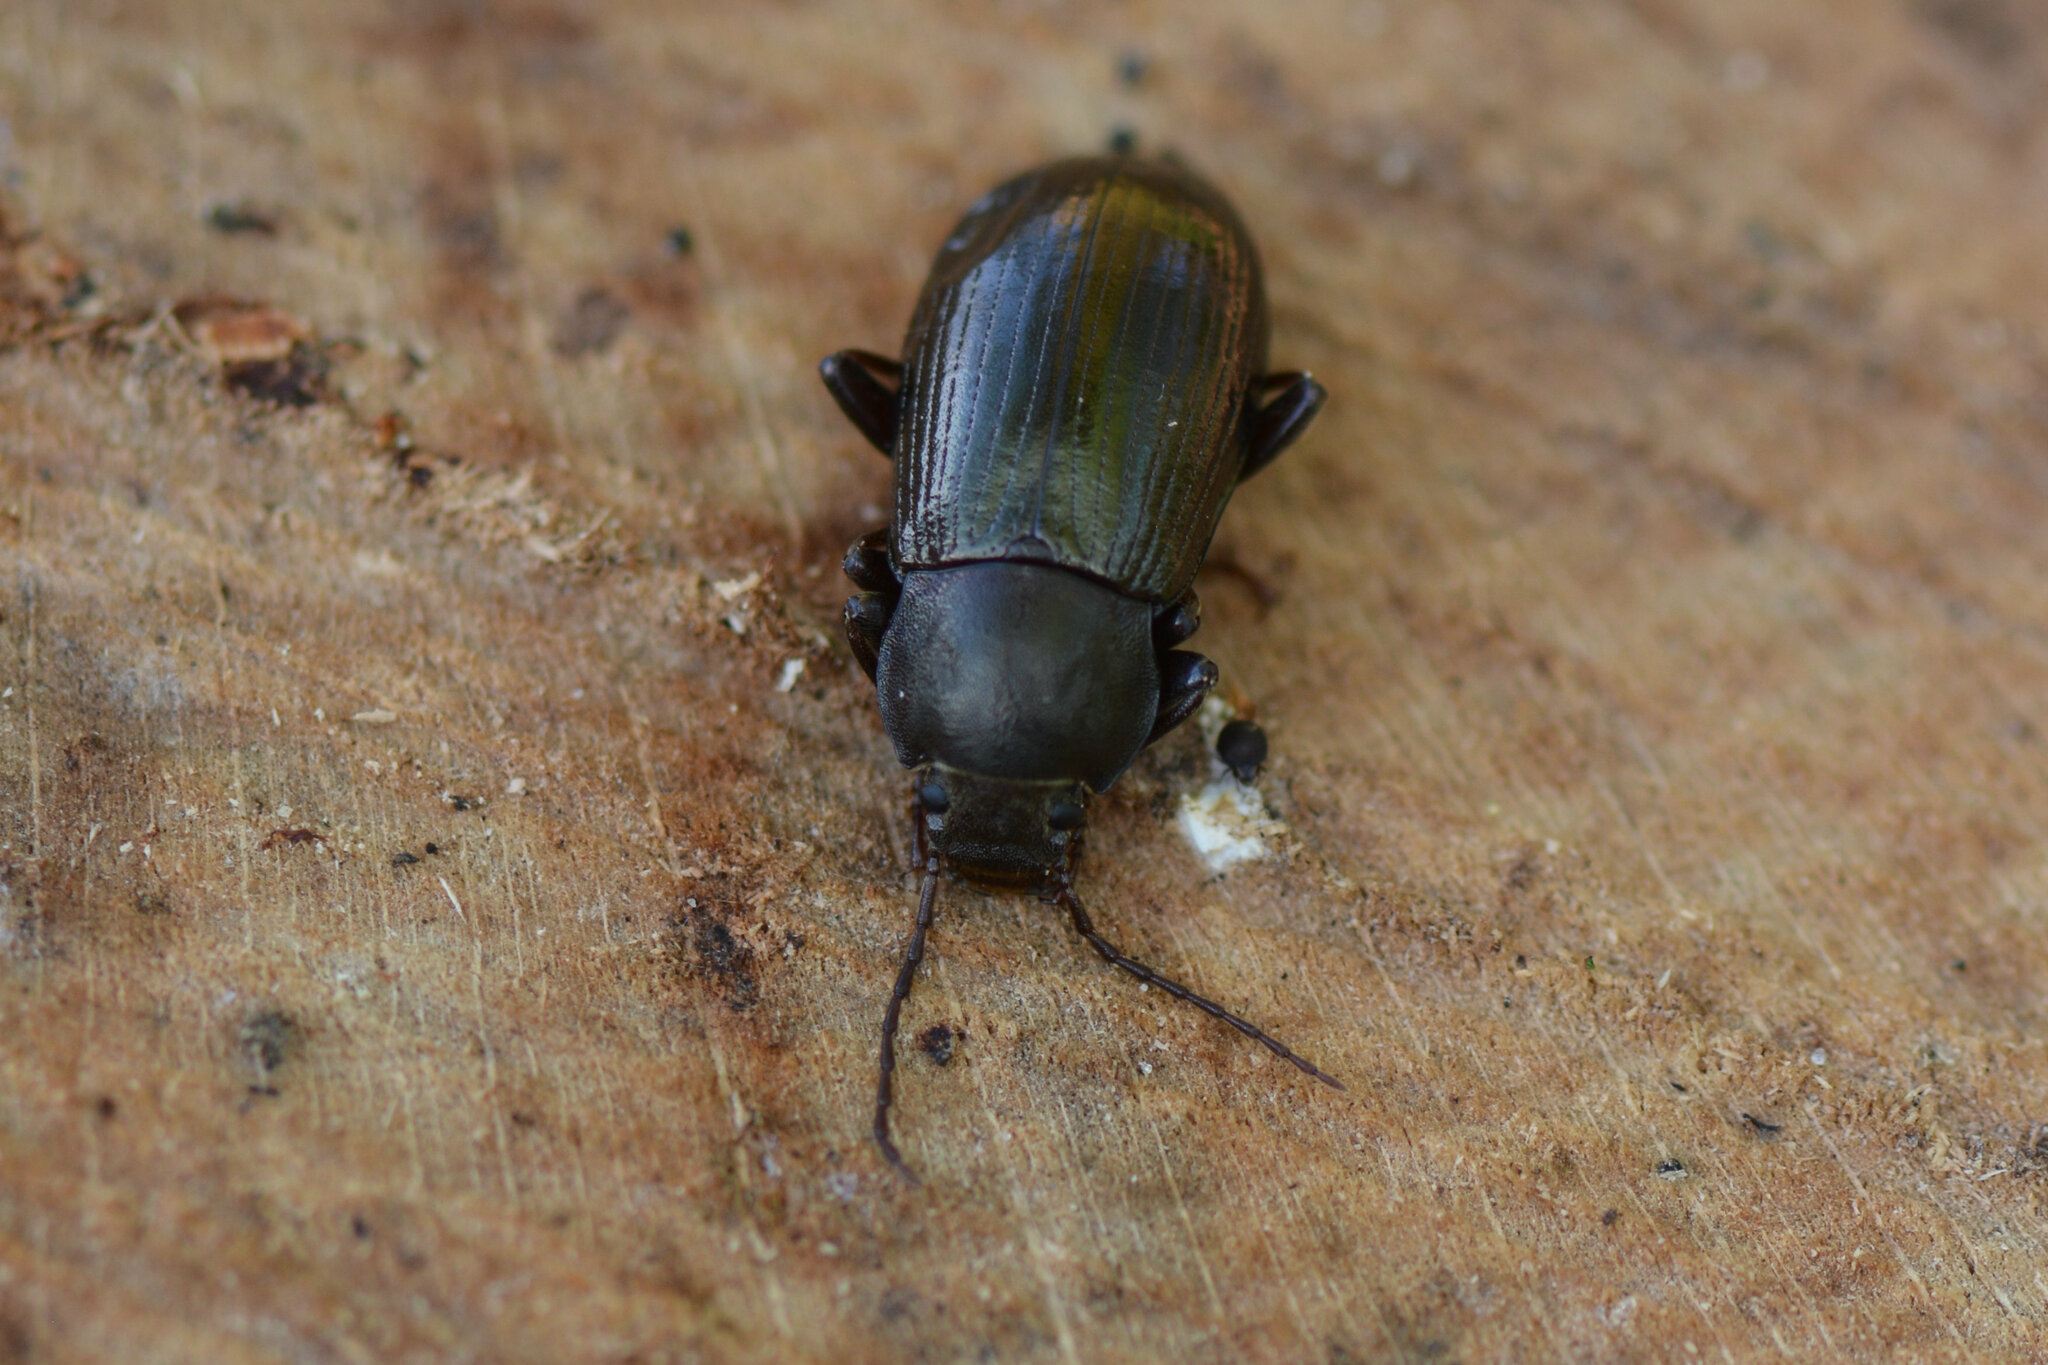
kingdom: Animalia
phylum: Arthropoda
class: Insecta
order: Coleoptera
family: Tenebrionidae
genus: Stenomax
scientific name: Stenomax aeneus
